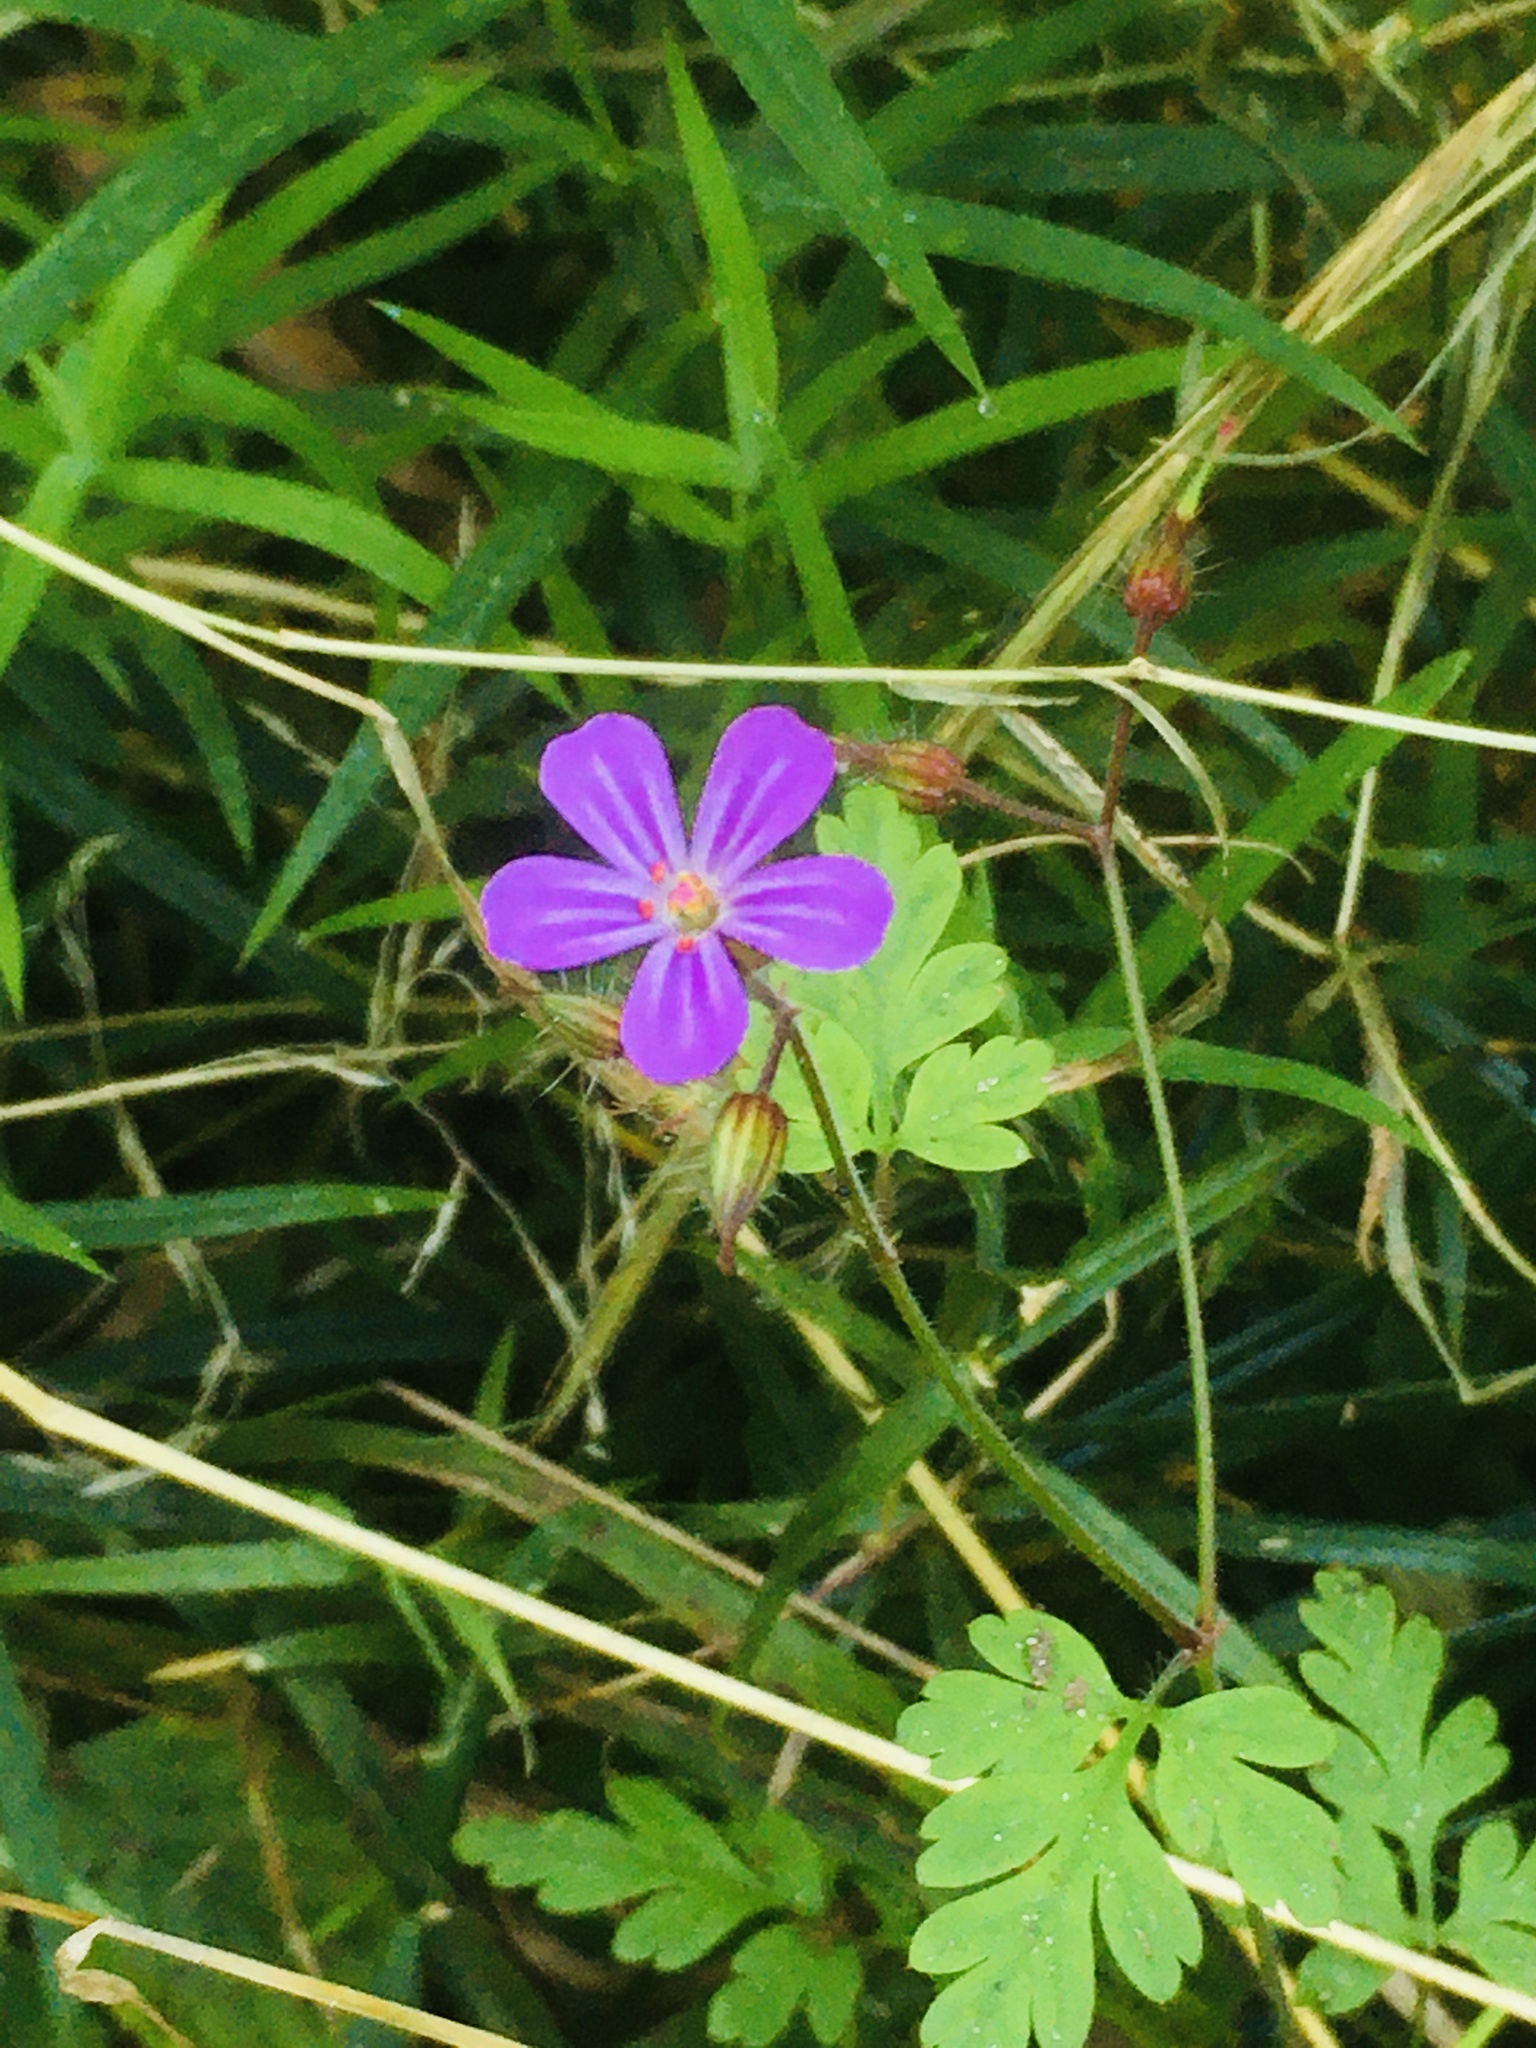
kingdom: Plantae
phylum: Tracheophyta
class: Magnoliopsida
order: Geraniales
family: Geraniaceae
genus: Geranium
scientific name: Geranium robertianum
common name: Herb-robert
